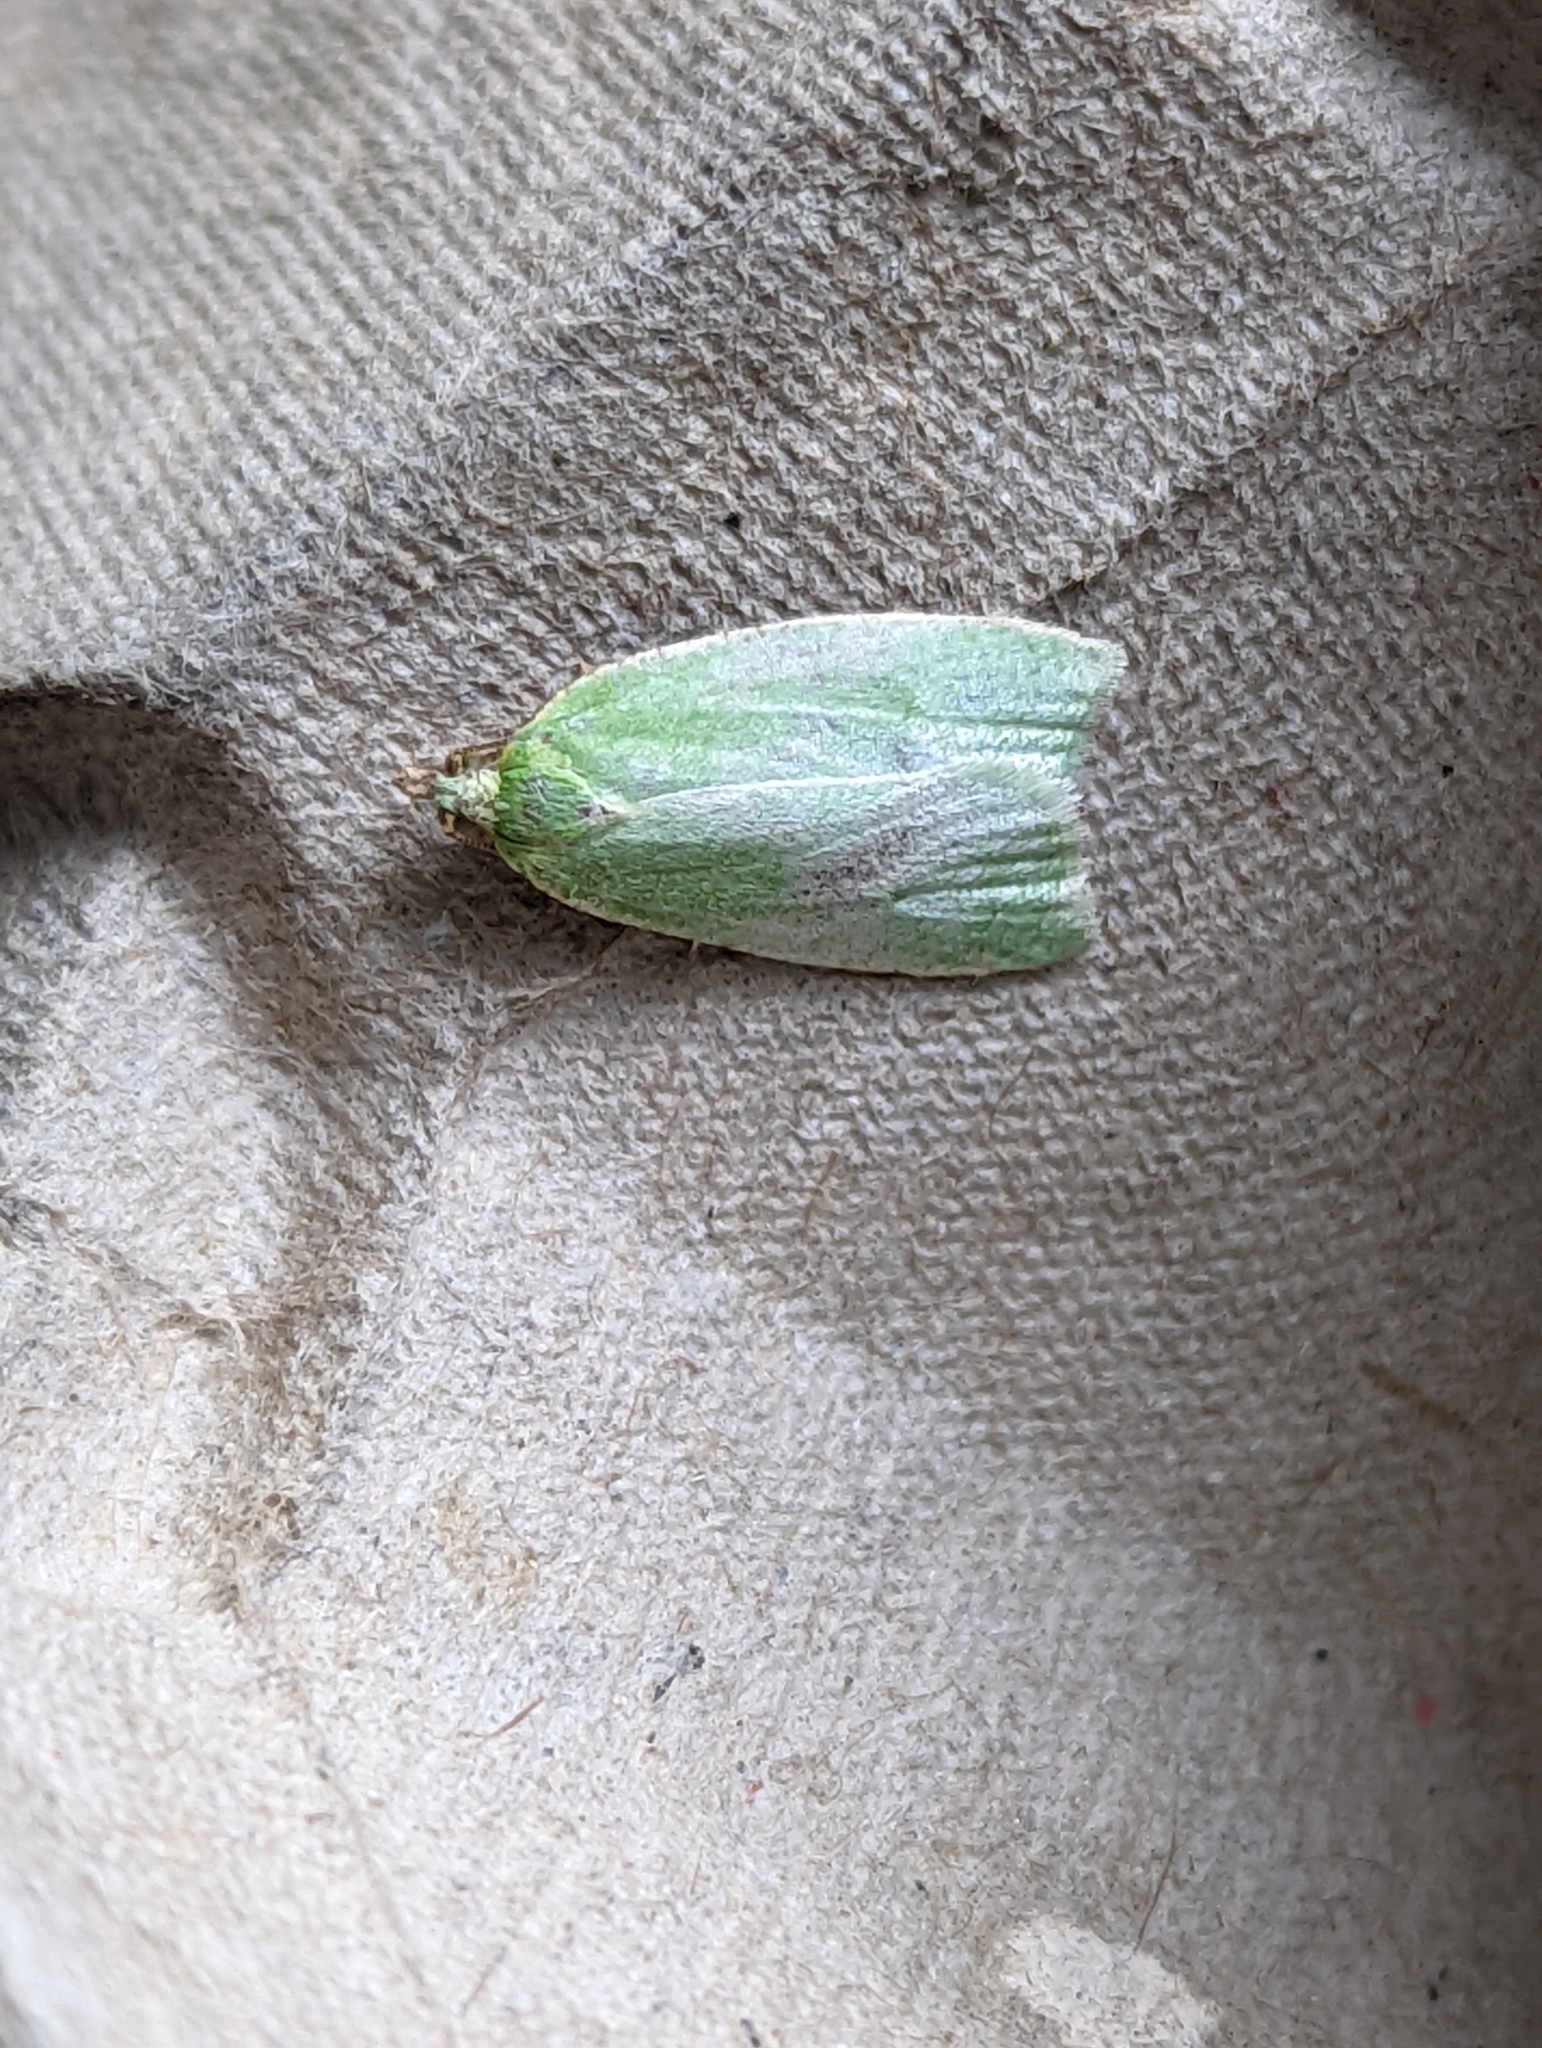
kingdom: Animalia
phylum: Arthropoda
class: Insecta
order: Lepidoptera
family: Tortricidae
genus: Tortrix
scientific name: Tortrix viridana
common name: Green oak tortrix
